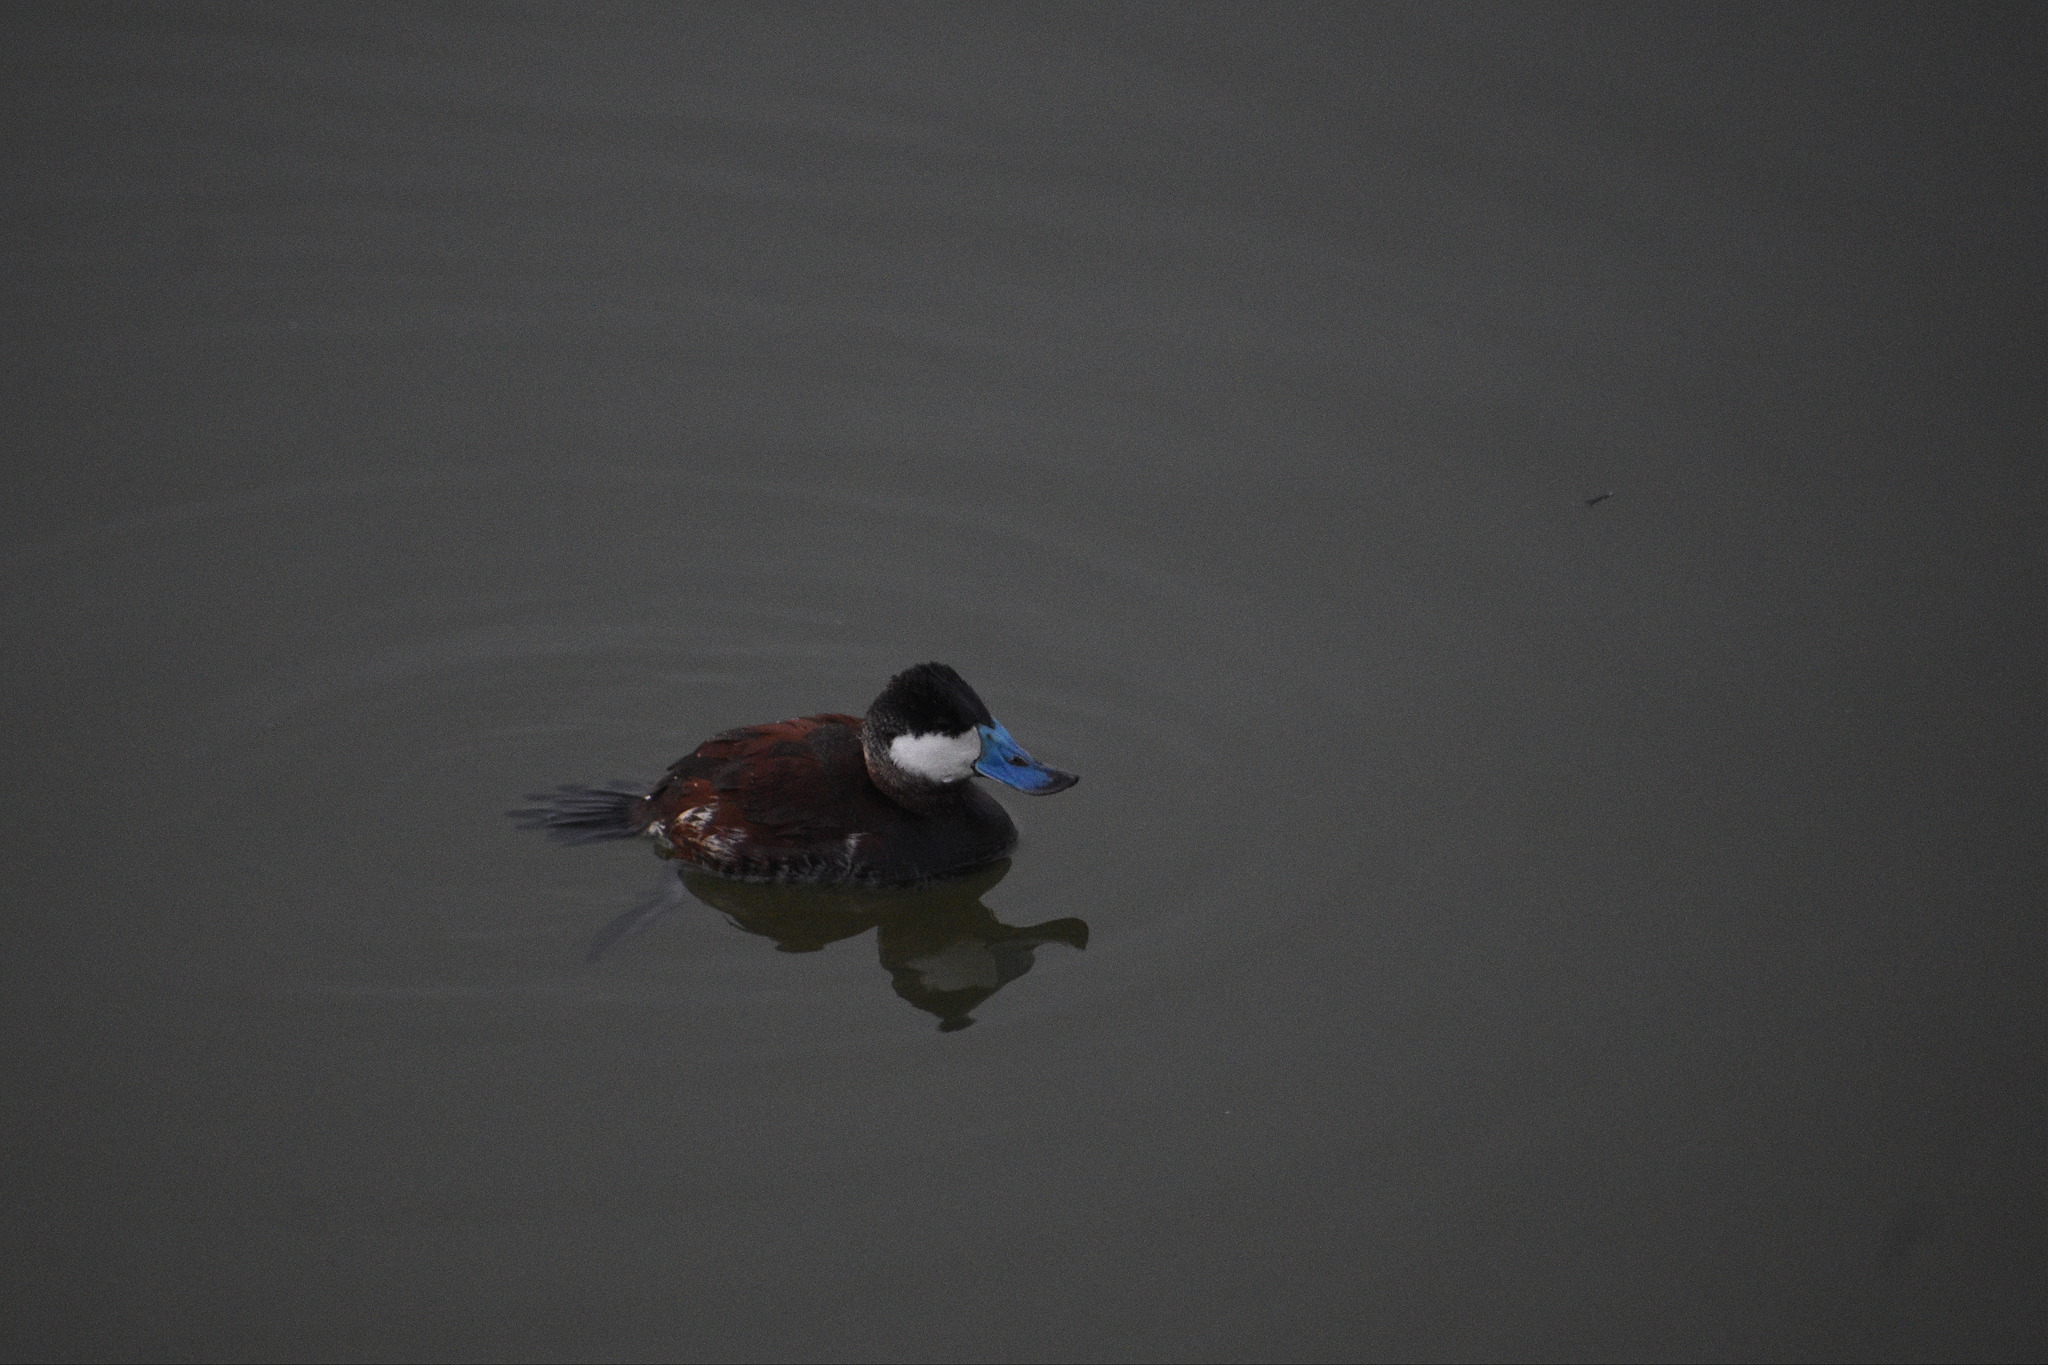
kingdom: Animalia
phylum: Chordata
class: Aves
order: Anseriformes
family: Anatidae
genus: Oxyura
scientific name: Oxyura jamaicensis
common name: Ruddy duck
